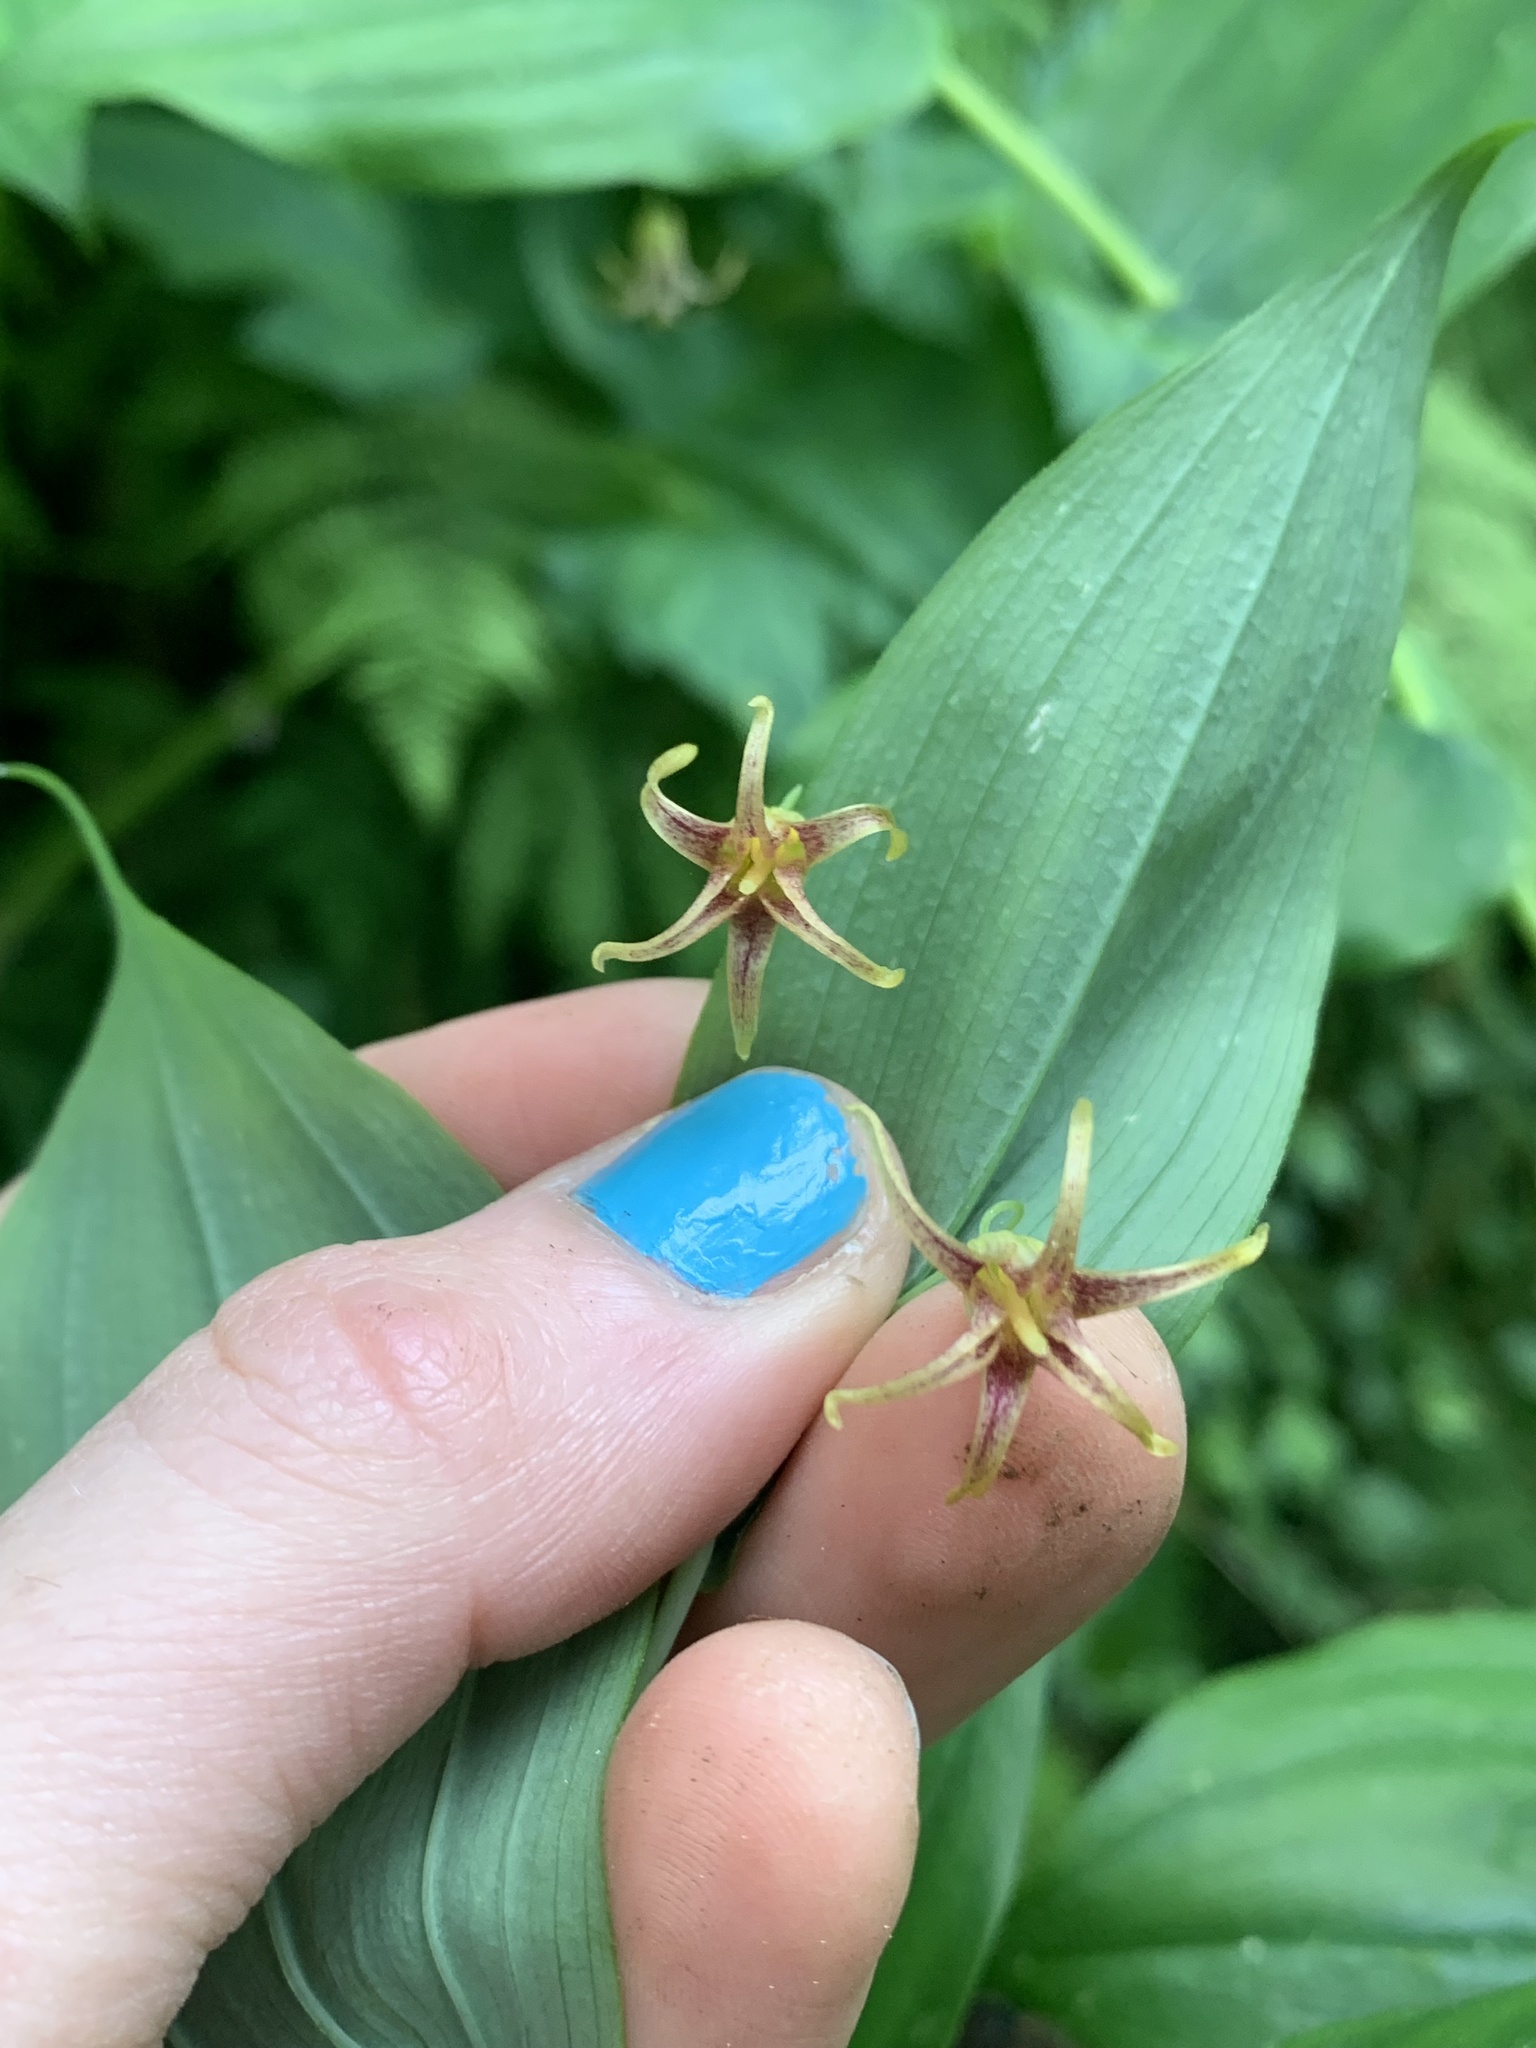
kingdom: Plantae
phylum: Tracheophyta
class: Liliopsida
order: Liliales
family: Liliaceae
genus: Streptopus
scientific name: Streptopus amplexifolius
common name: Clasp twisted stalk
